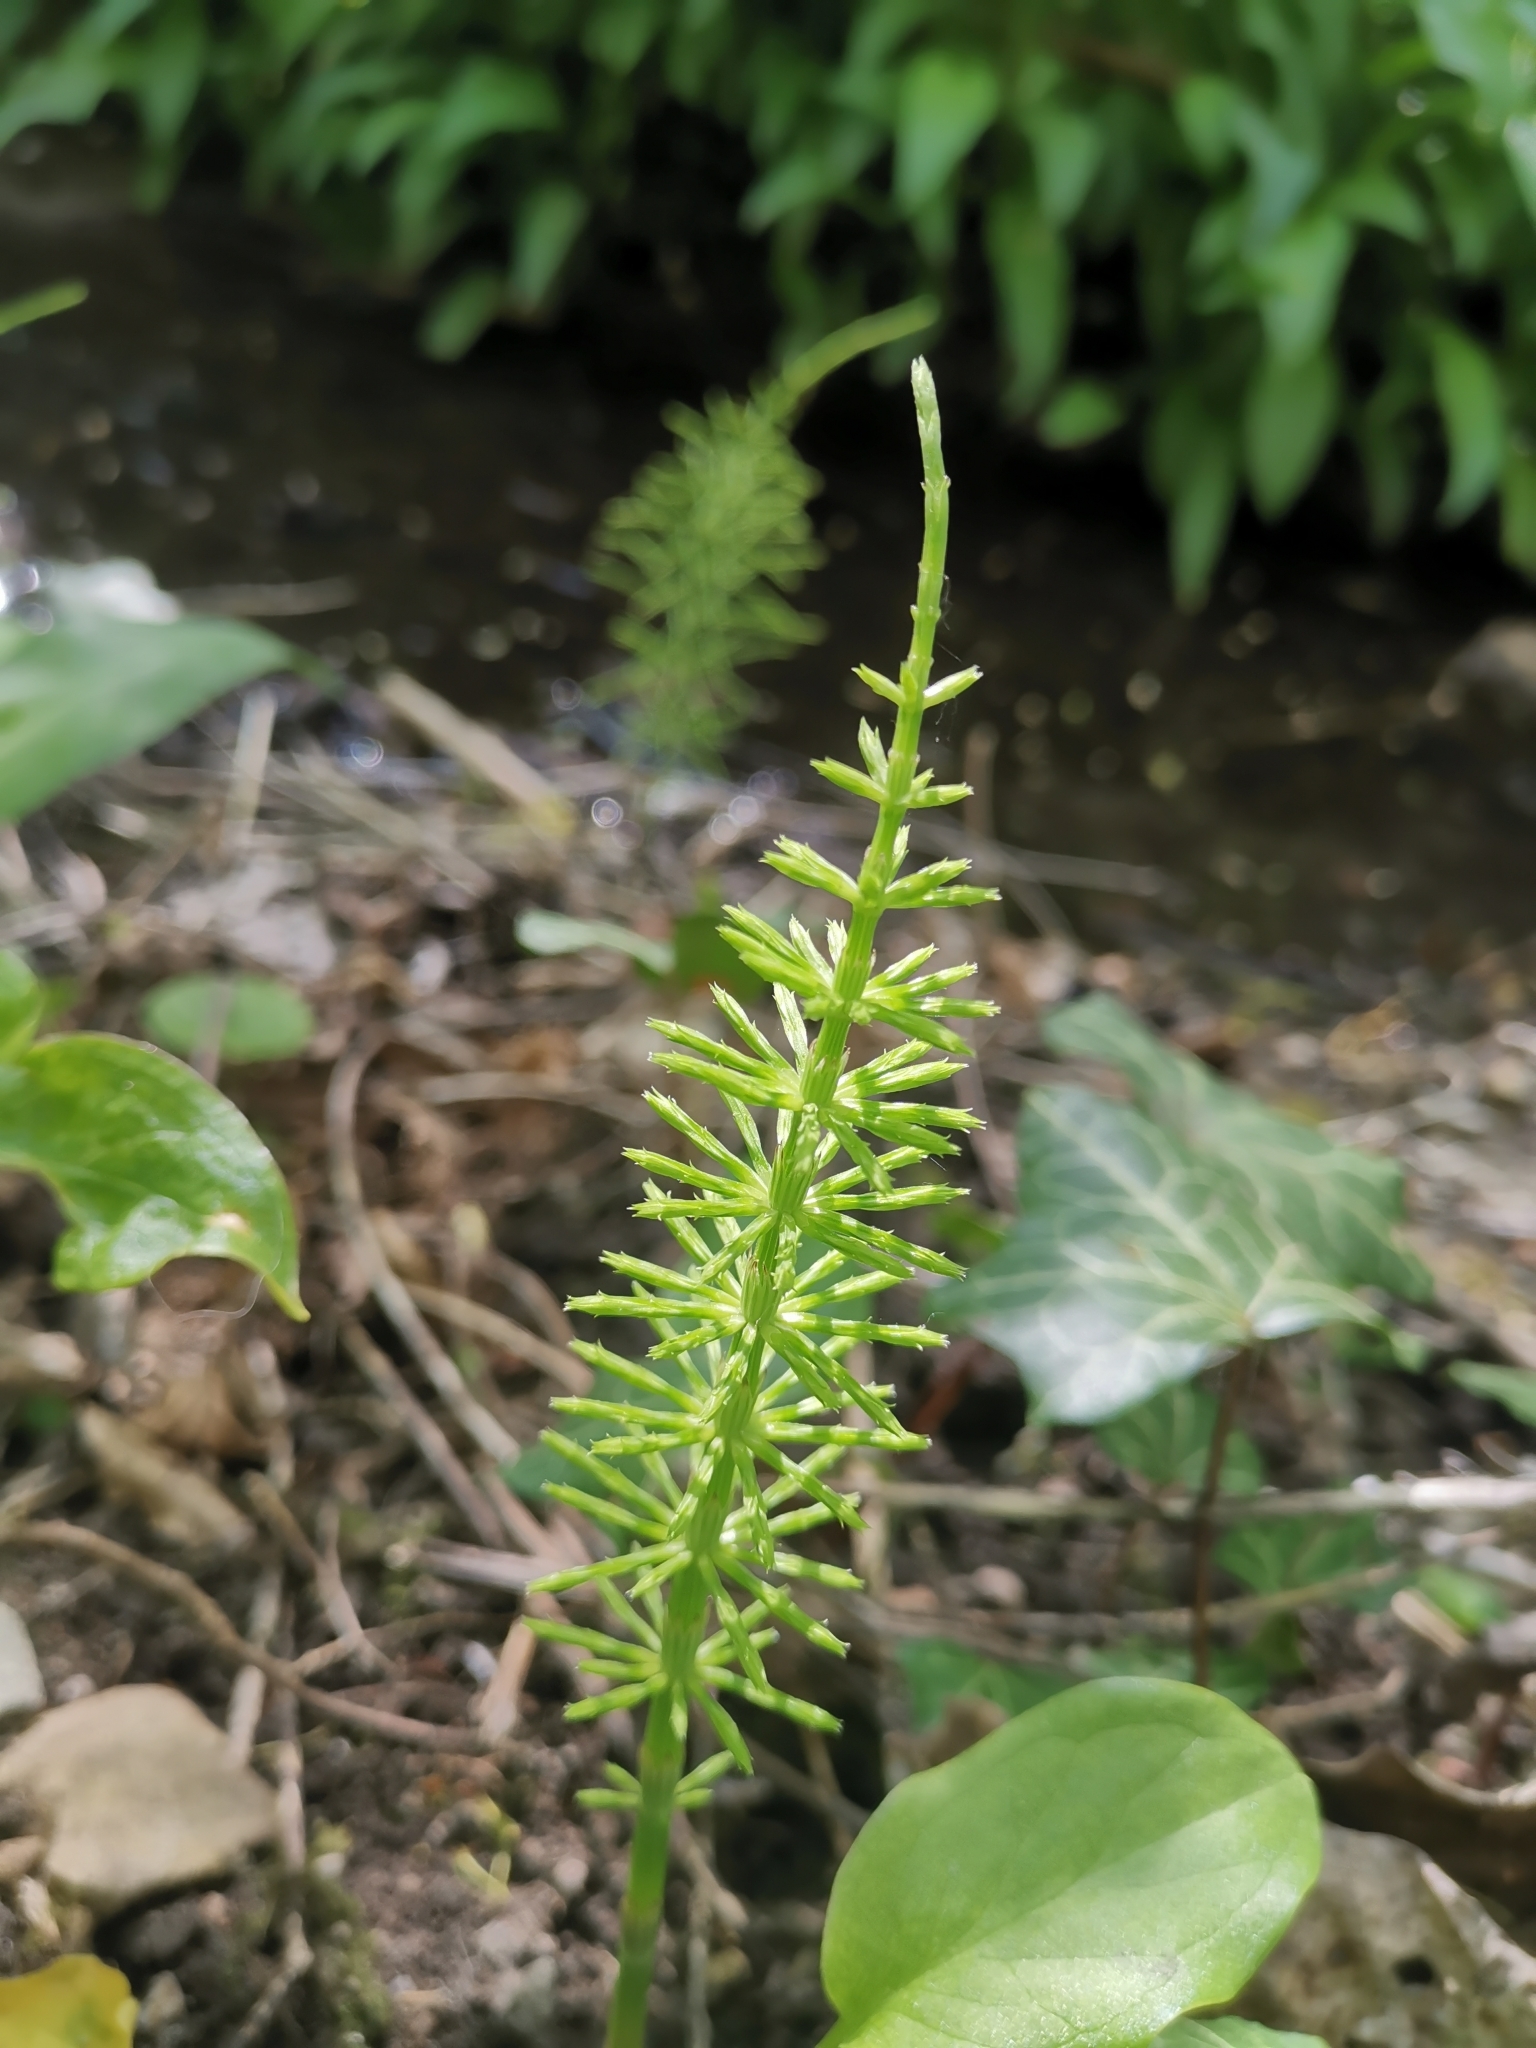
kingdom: Plantae
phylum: Tracheophyta
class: Polypodiopsida
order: Equisetales
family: Equisetaceae
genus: Equisetum
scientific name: Equisetum arvense
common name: Field horsetail
